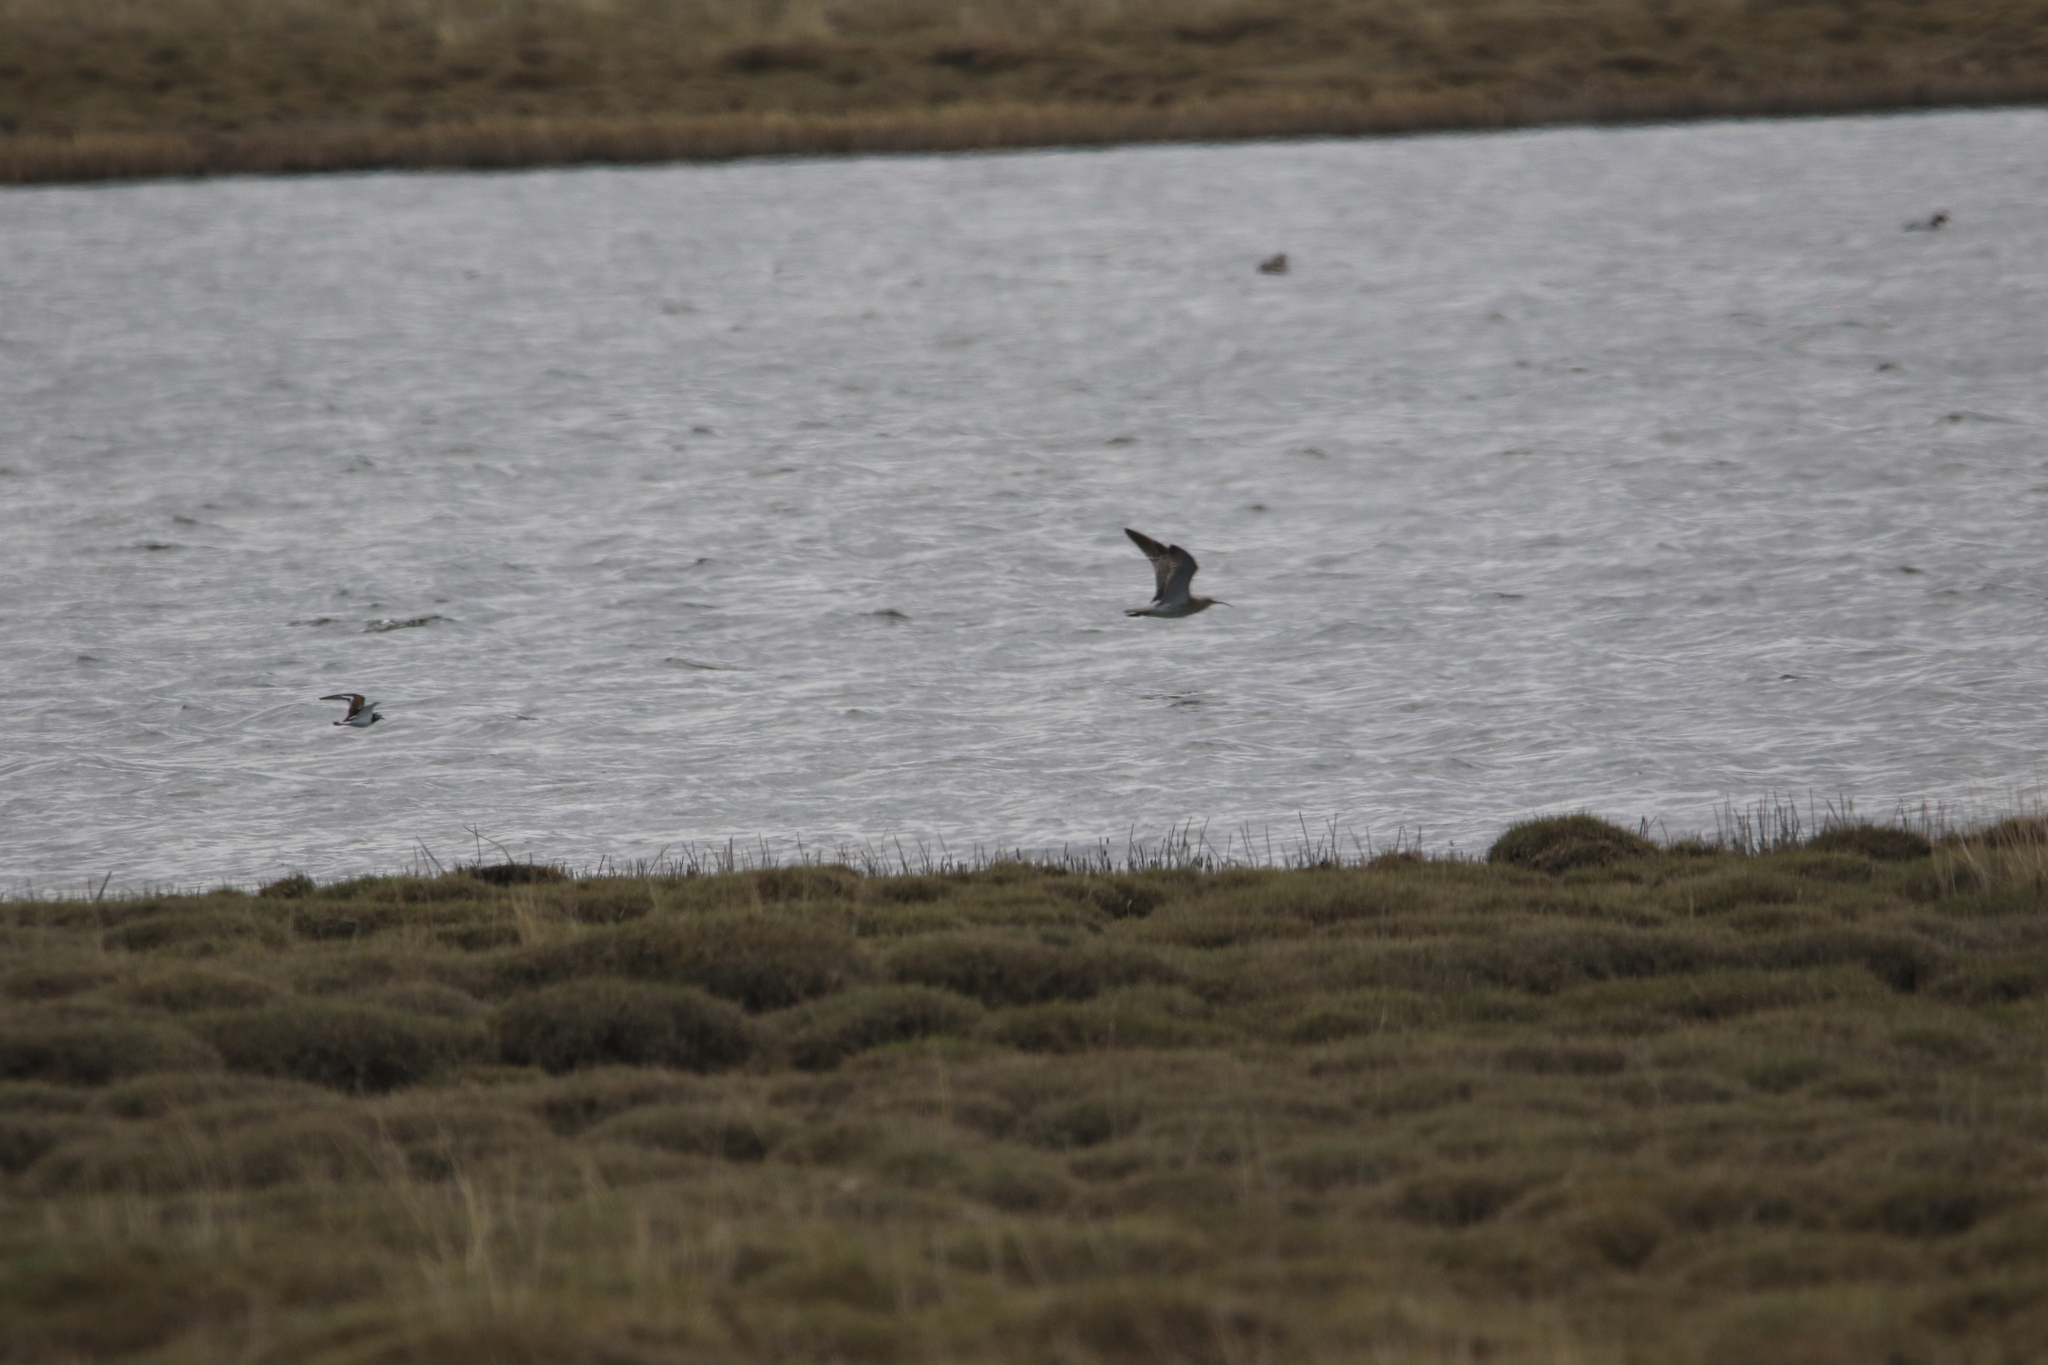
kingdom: Animalia
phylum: Chordata
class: Aves
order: Charadriiformes
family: Scolopacidae
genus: Numenius
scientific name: Numenius phaeopus
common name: Whimbrel
